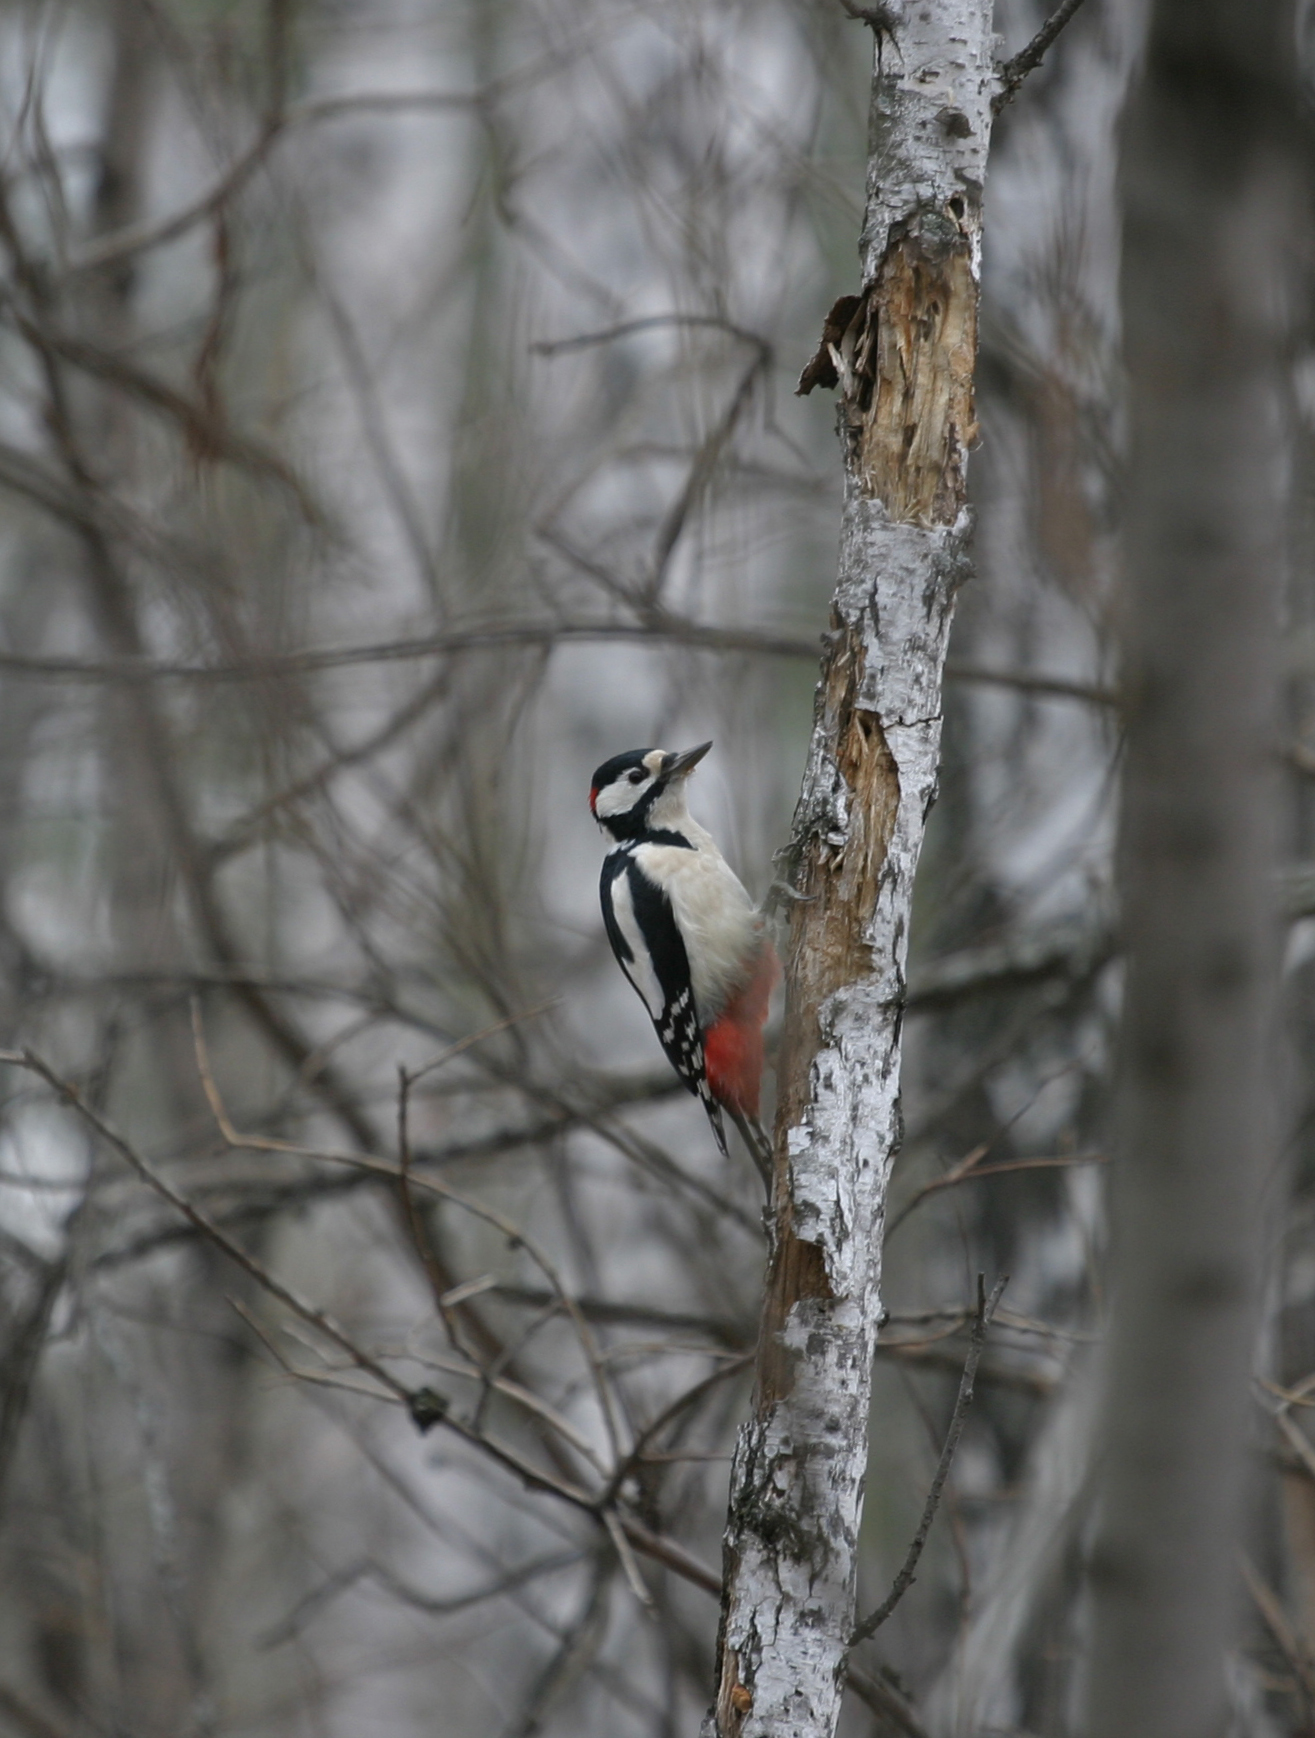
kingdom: Animalia
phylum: Chordata
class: Aves
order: Piciformes
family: Picidae
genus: Dendrocopos
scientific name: Dendrocopos major
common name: Great spotted woodpecker
